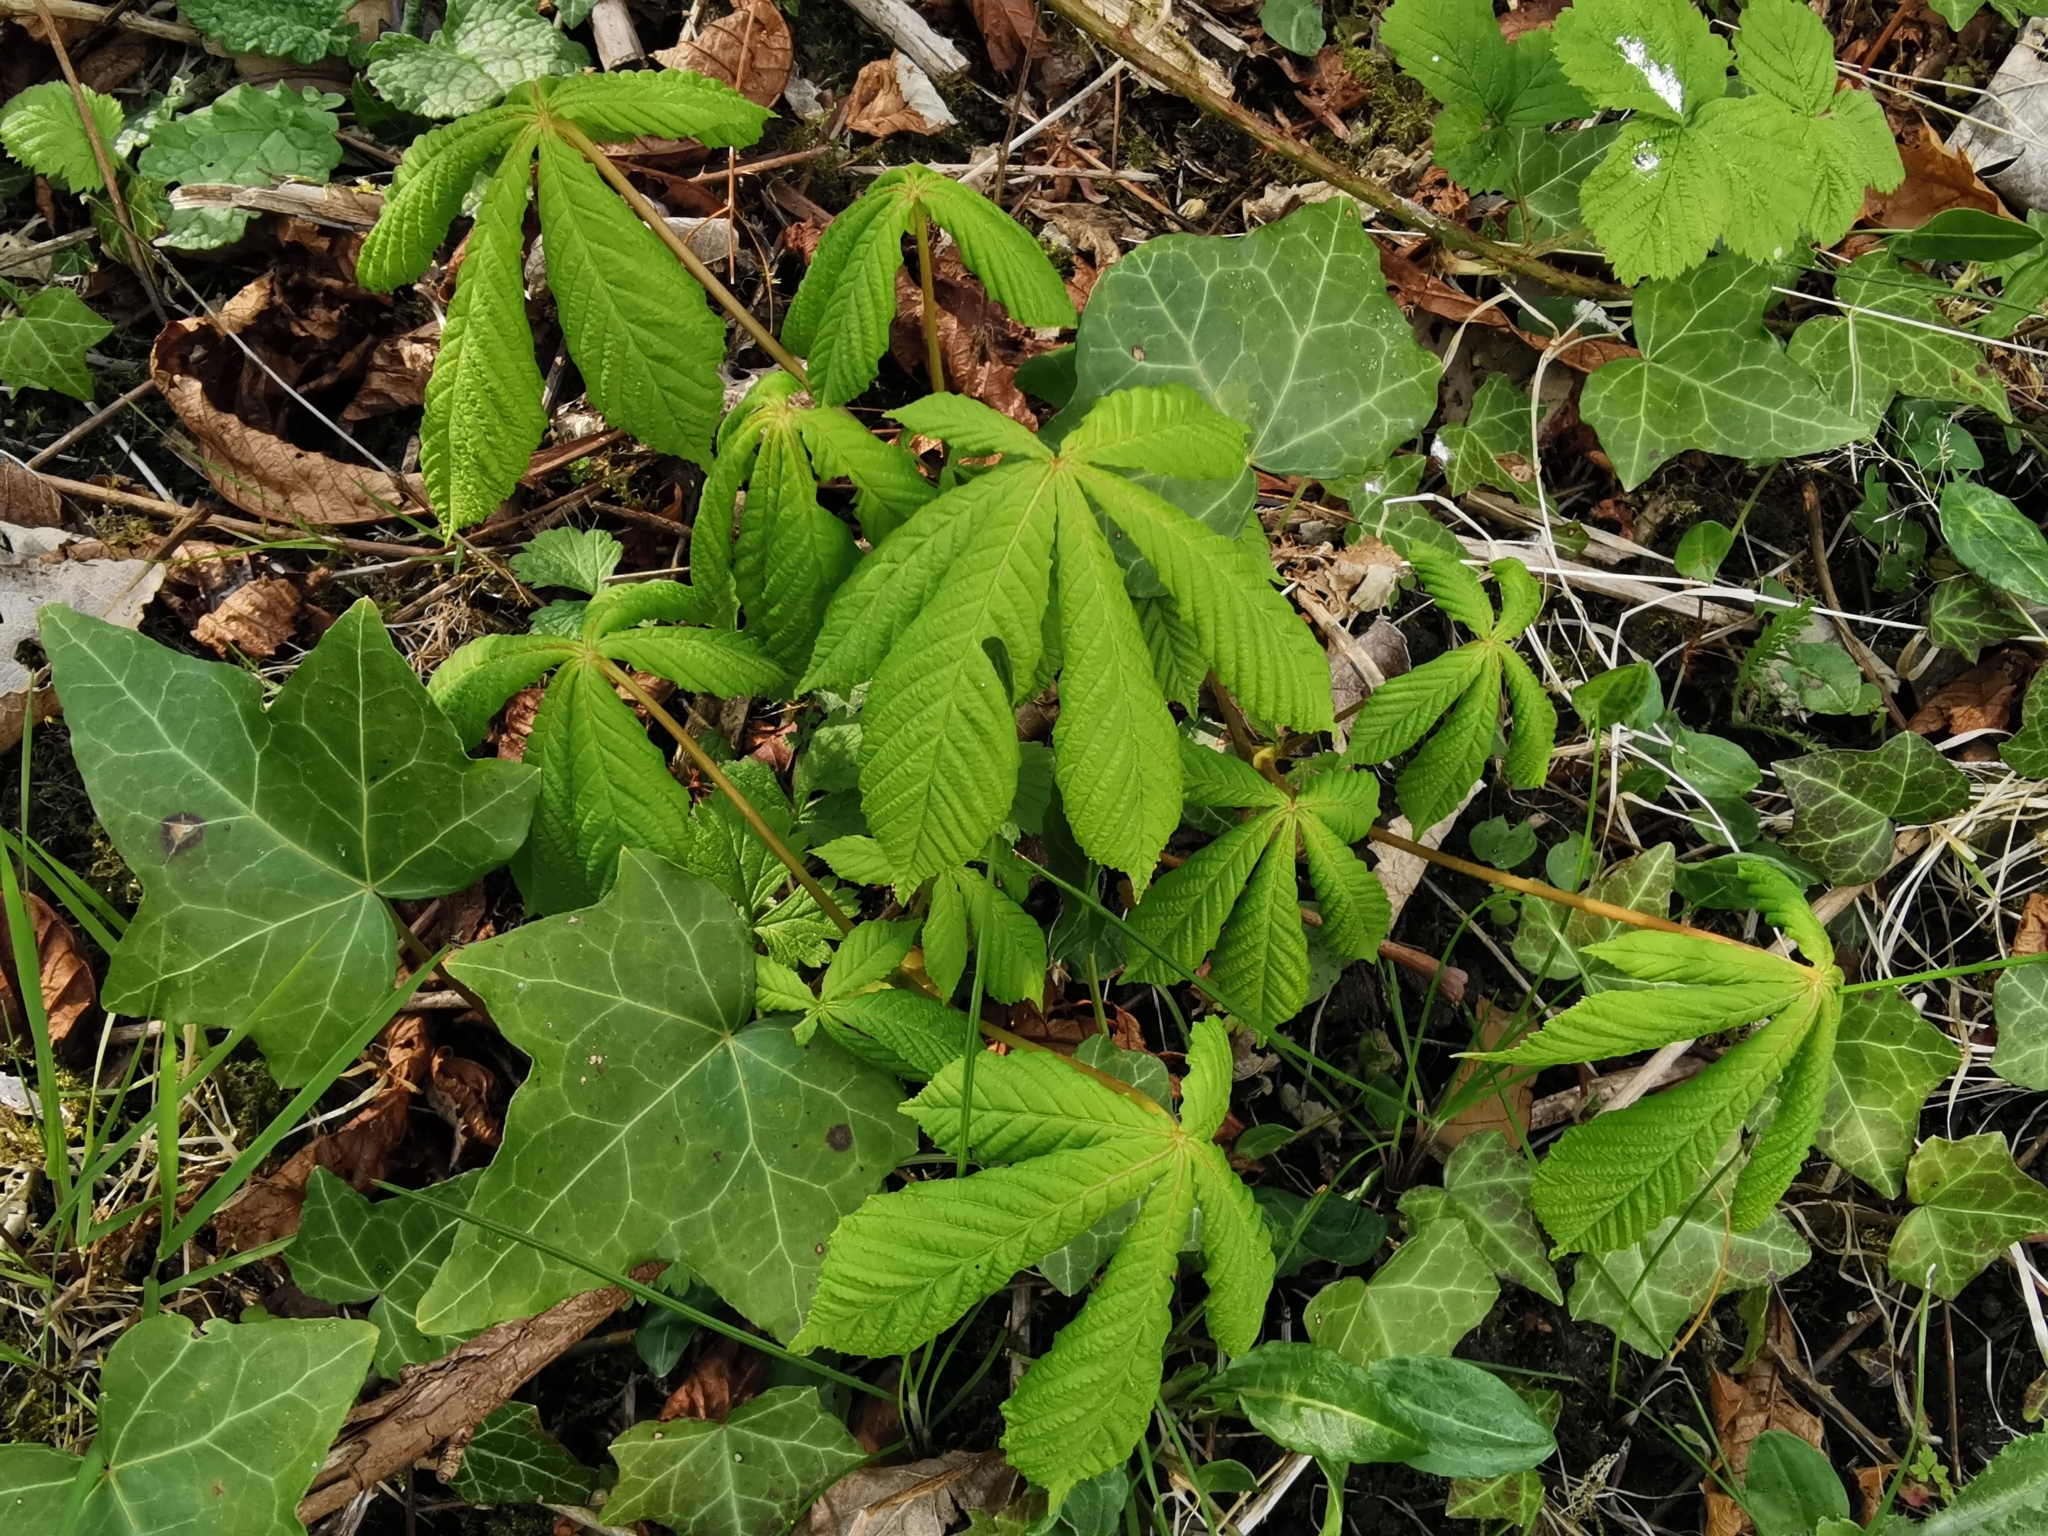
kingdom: Plantae
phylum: Tracheophyta
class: Magnoliopsida
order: Sapindales
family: Sapindaceae
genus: Aesculus
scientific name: Aesculus hippocastanum
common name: Horse-chestnut
